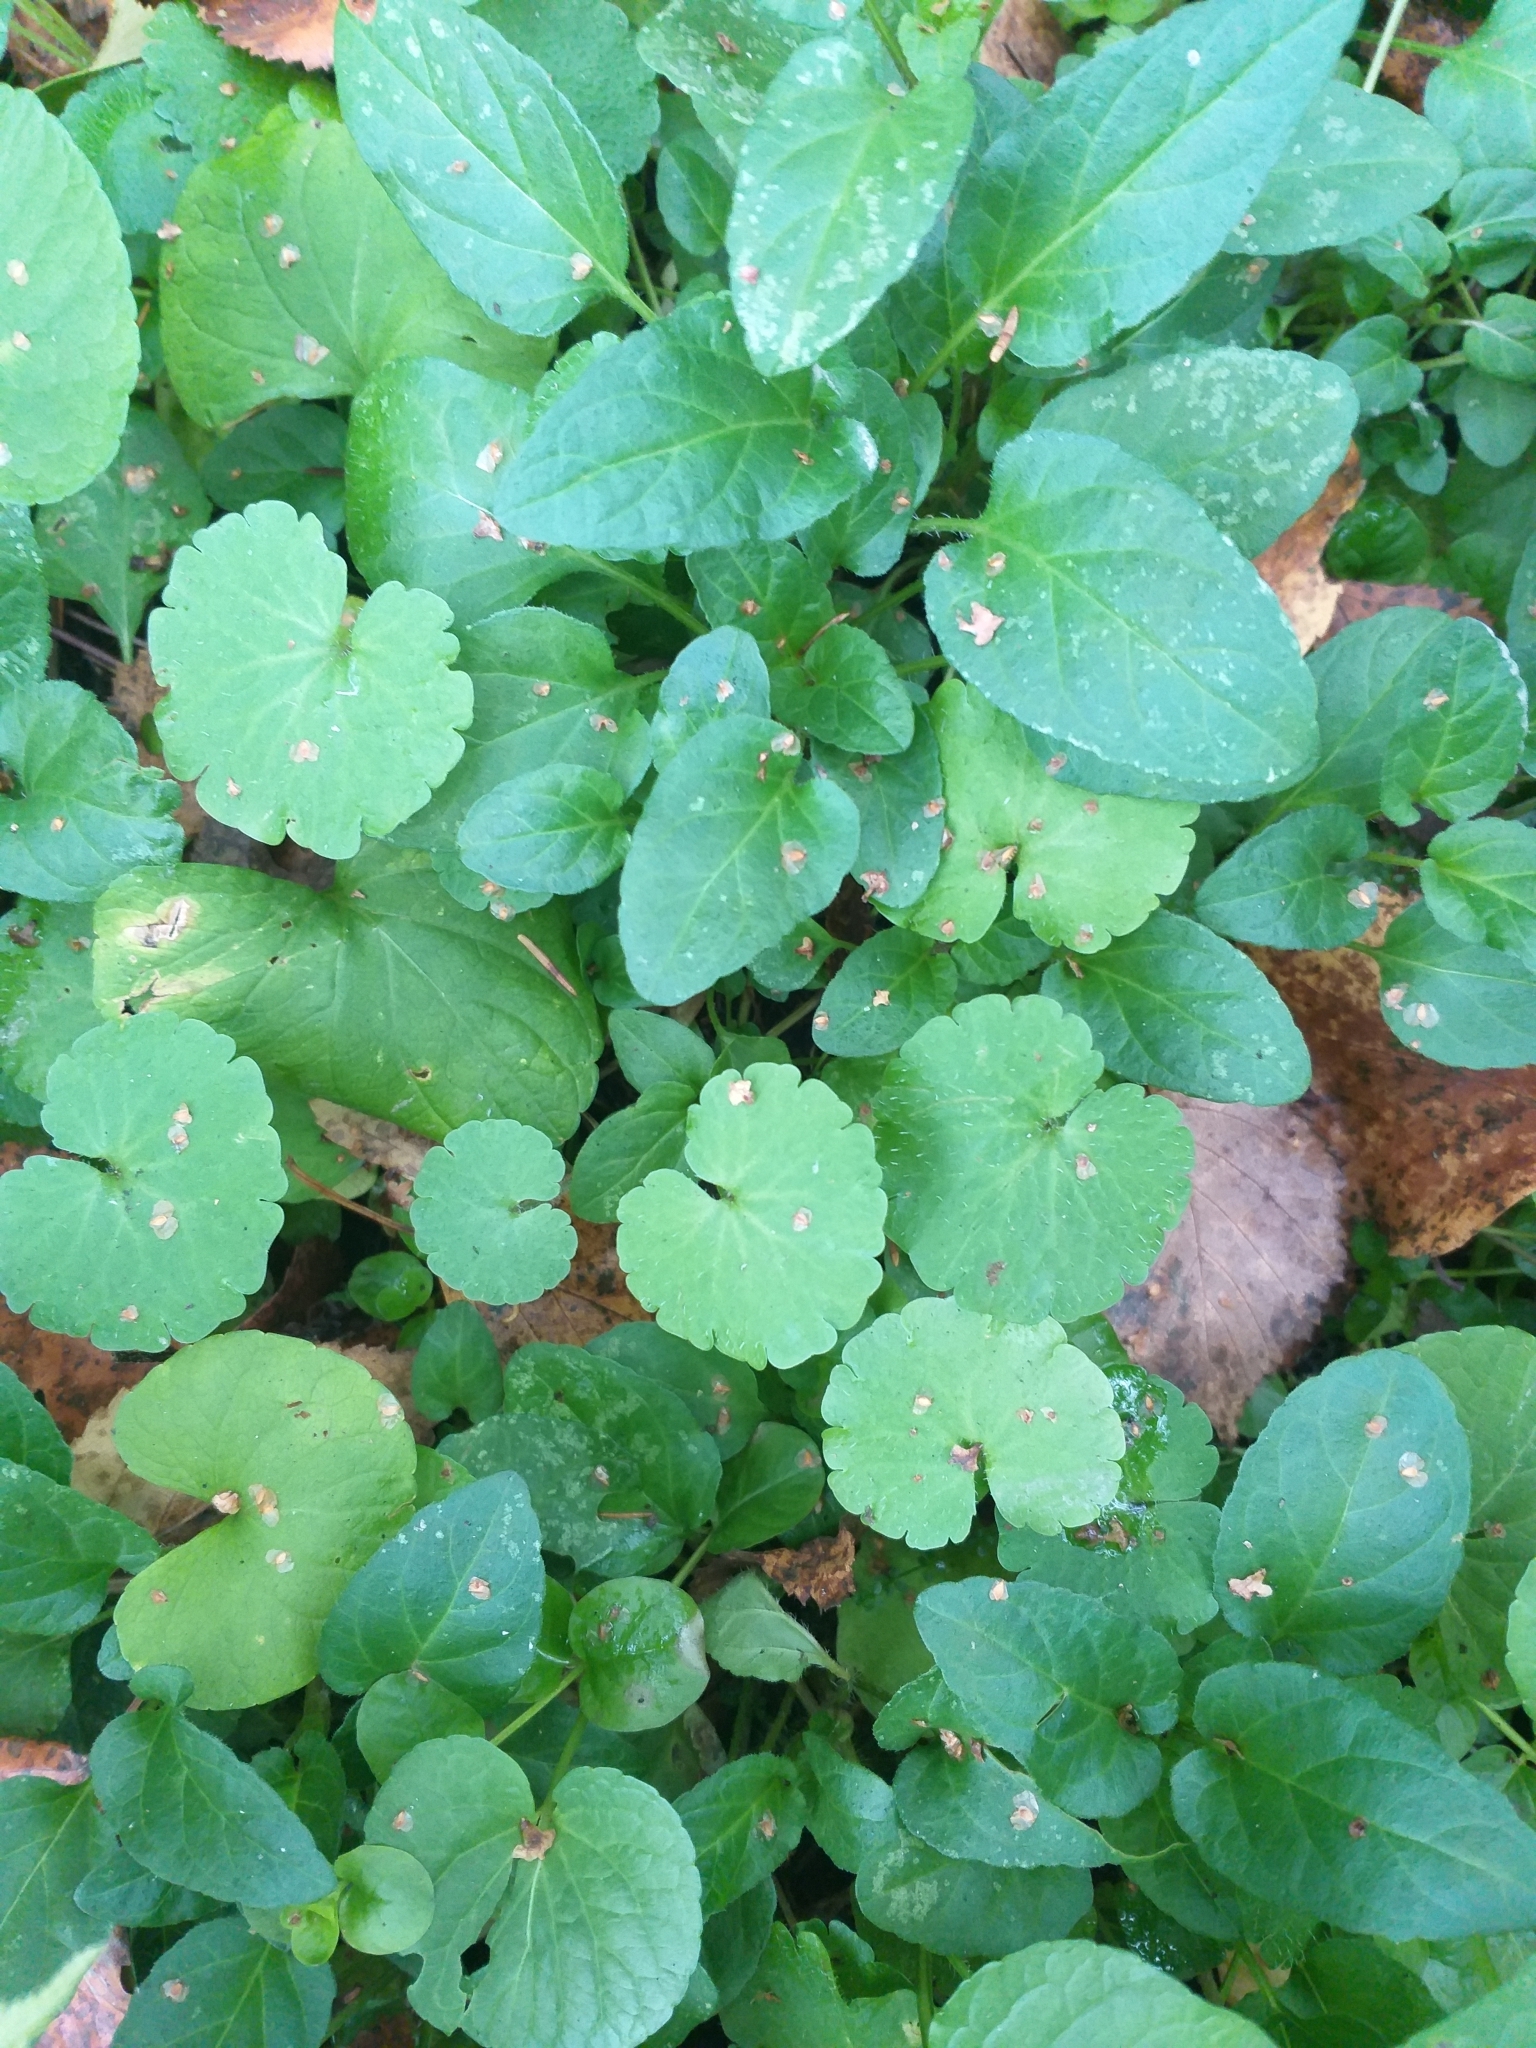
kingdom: Plantae
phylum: Tracheophyta
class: Magnoliopsida
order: Saxifragales
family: Saxifragaceae
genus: Chrysosplenium
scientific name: Chrysosplenium alternifolium
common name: Alternate-leaved golden-saxifrage
